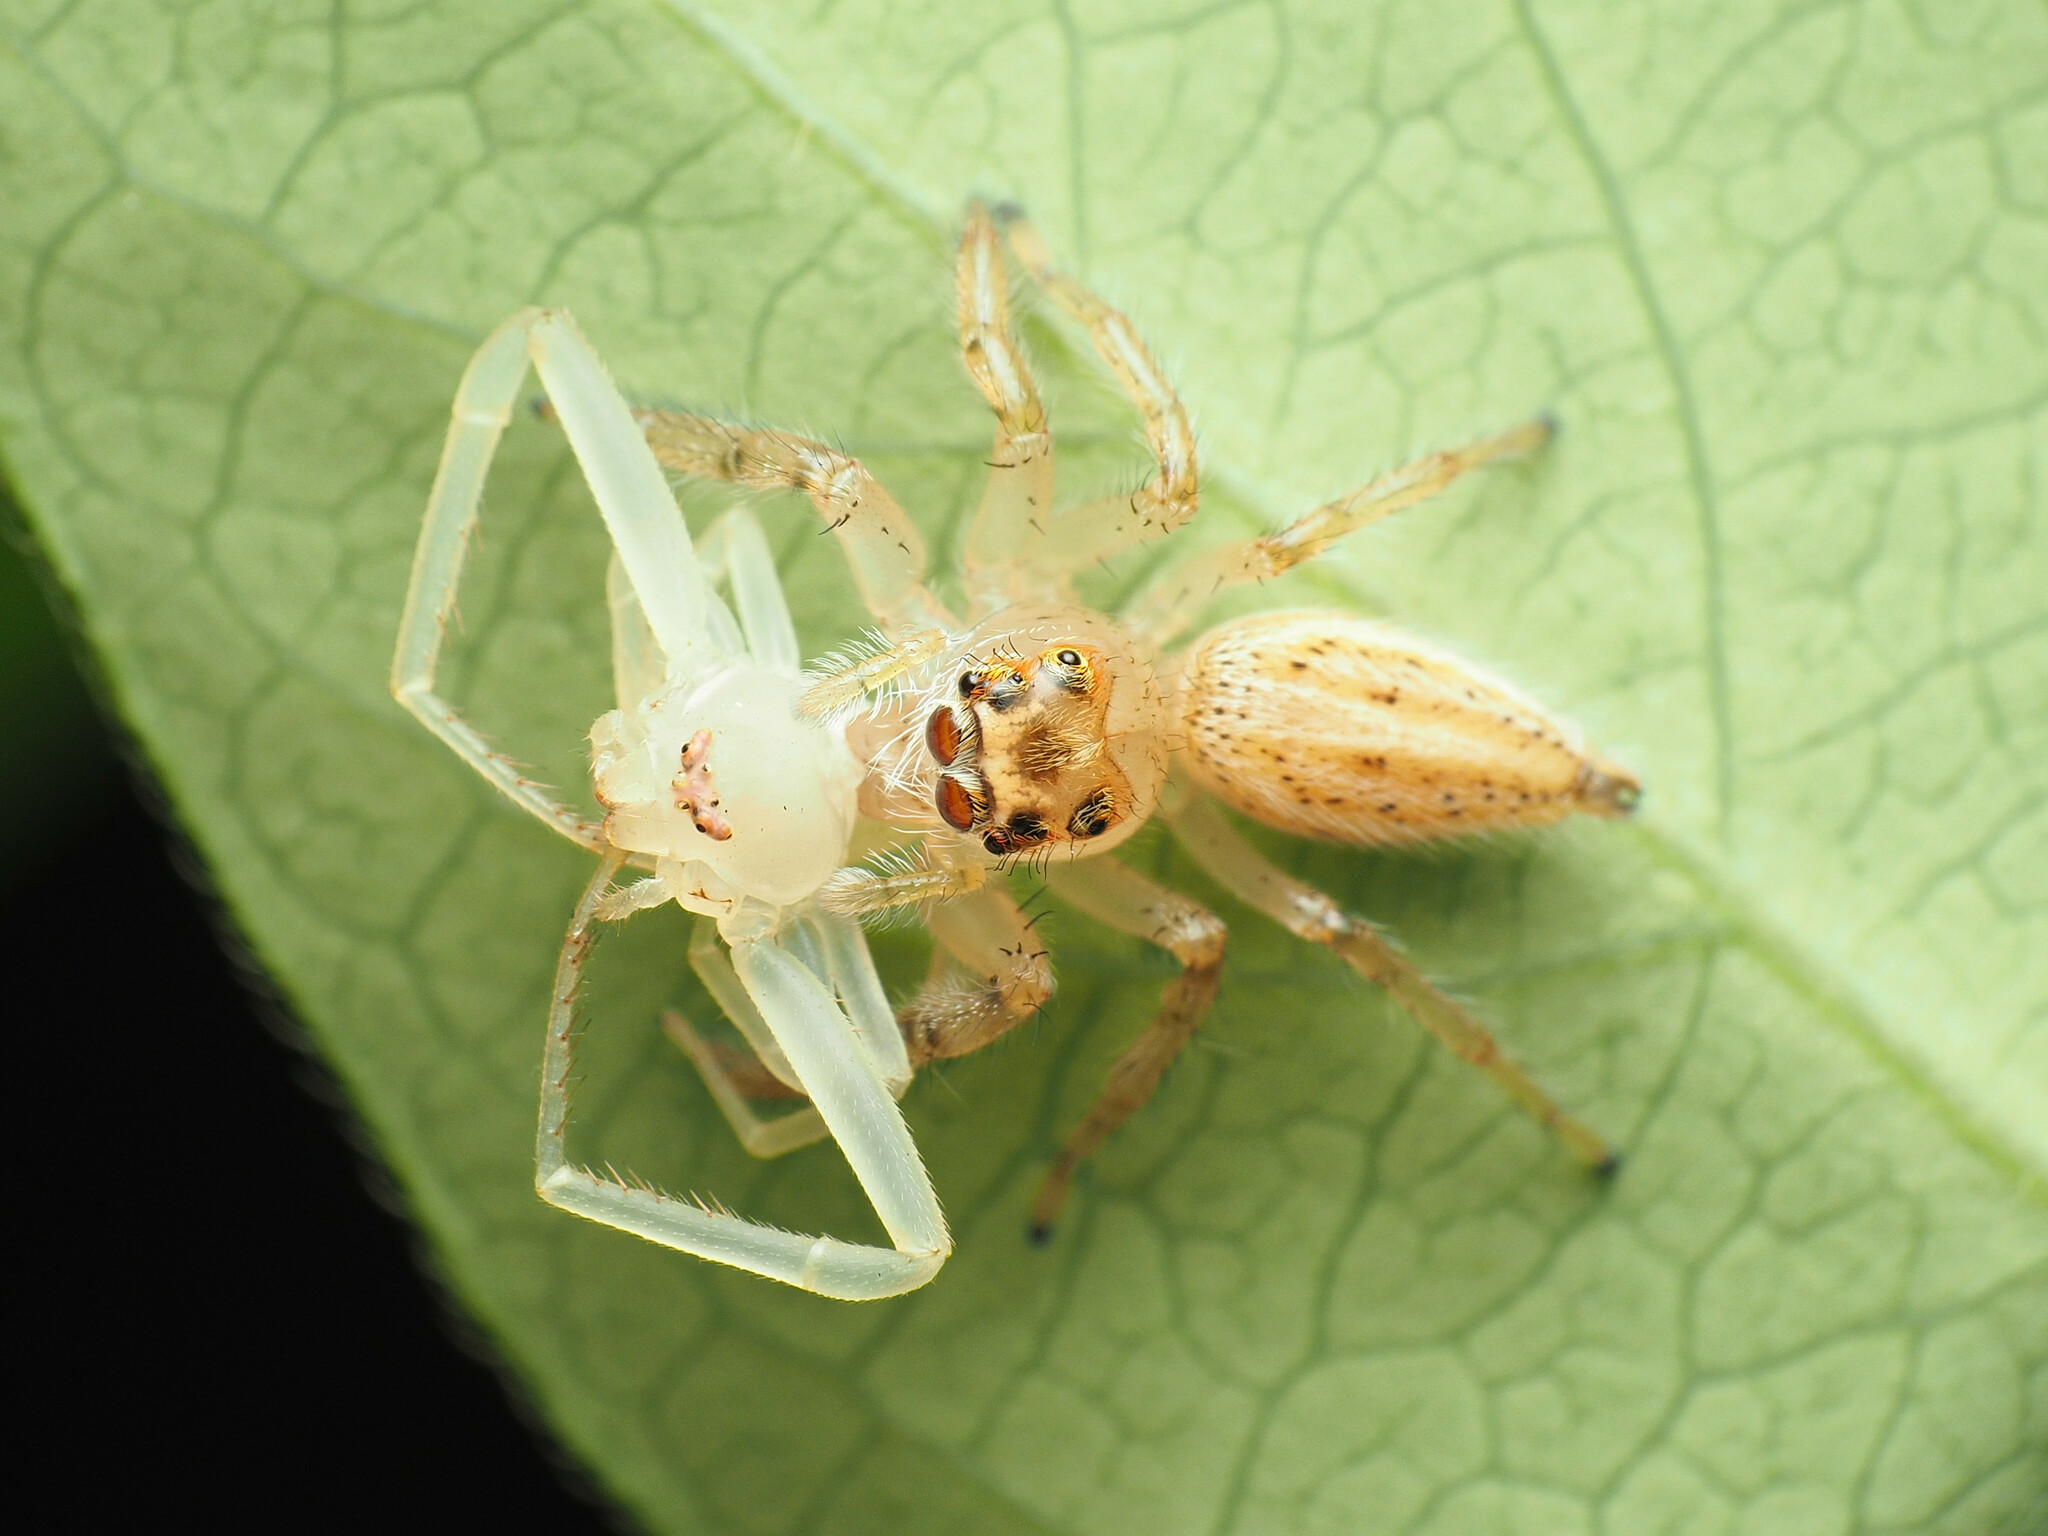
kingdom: Animalia
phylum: Arthropoda
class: Arachnida
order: Araneae
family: Thomisidae
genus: Misumessus
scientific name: Misumessus oblongus
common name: American green crab spider
